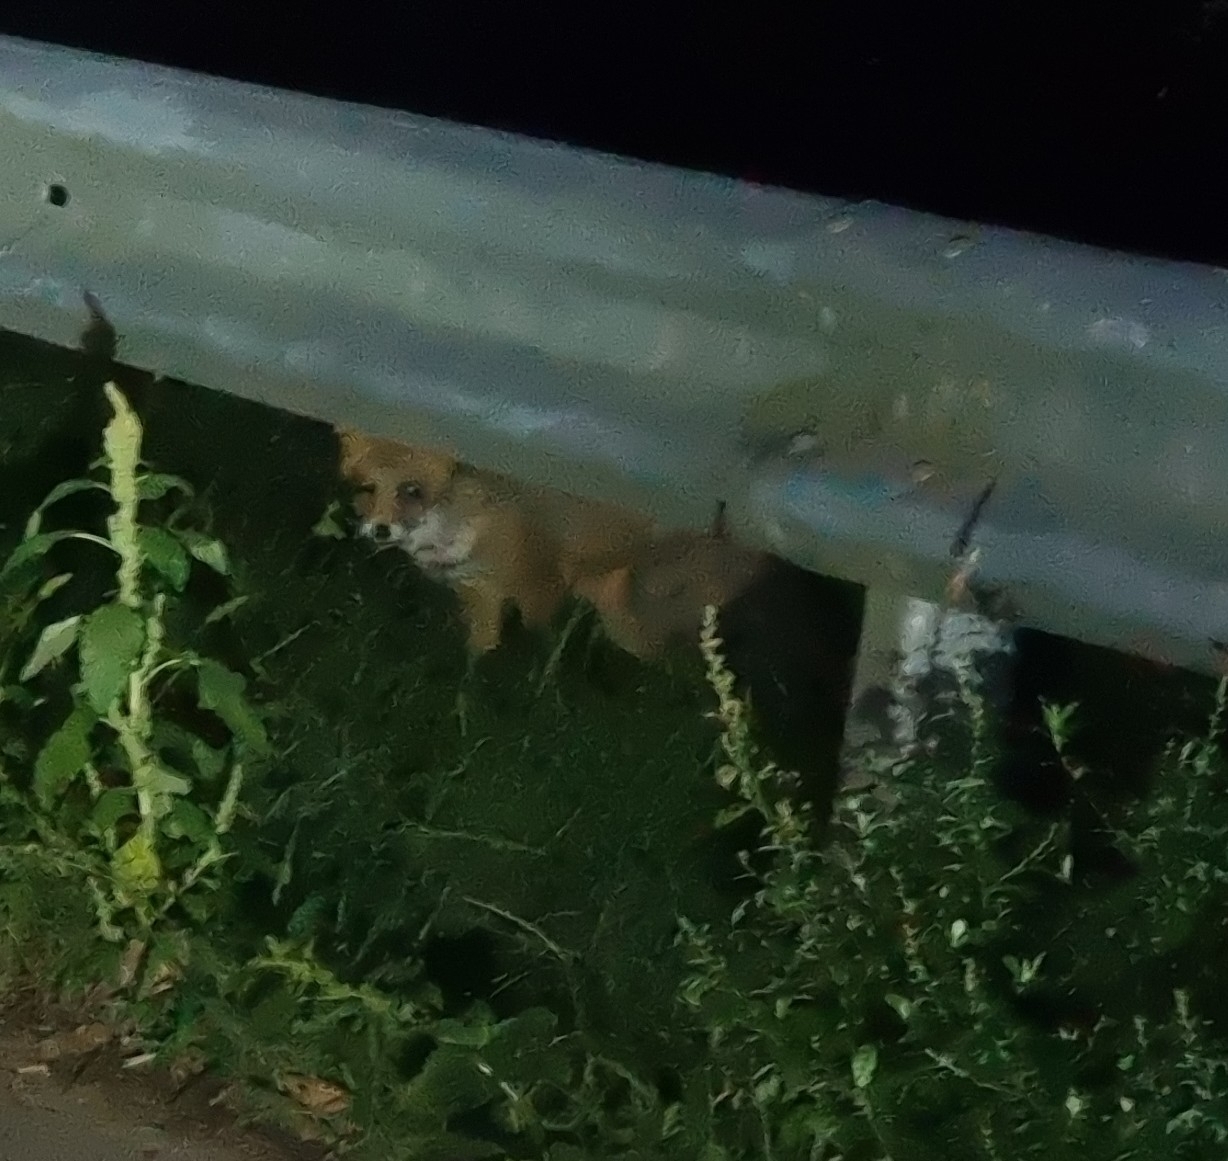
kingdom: Animalia
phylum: Chordata
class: Mammalia
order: Carnivora
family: Canidae
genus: Vulpes
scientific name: Vulpes vulpes
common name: Red fox
